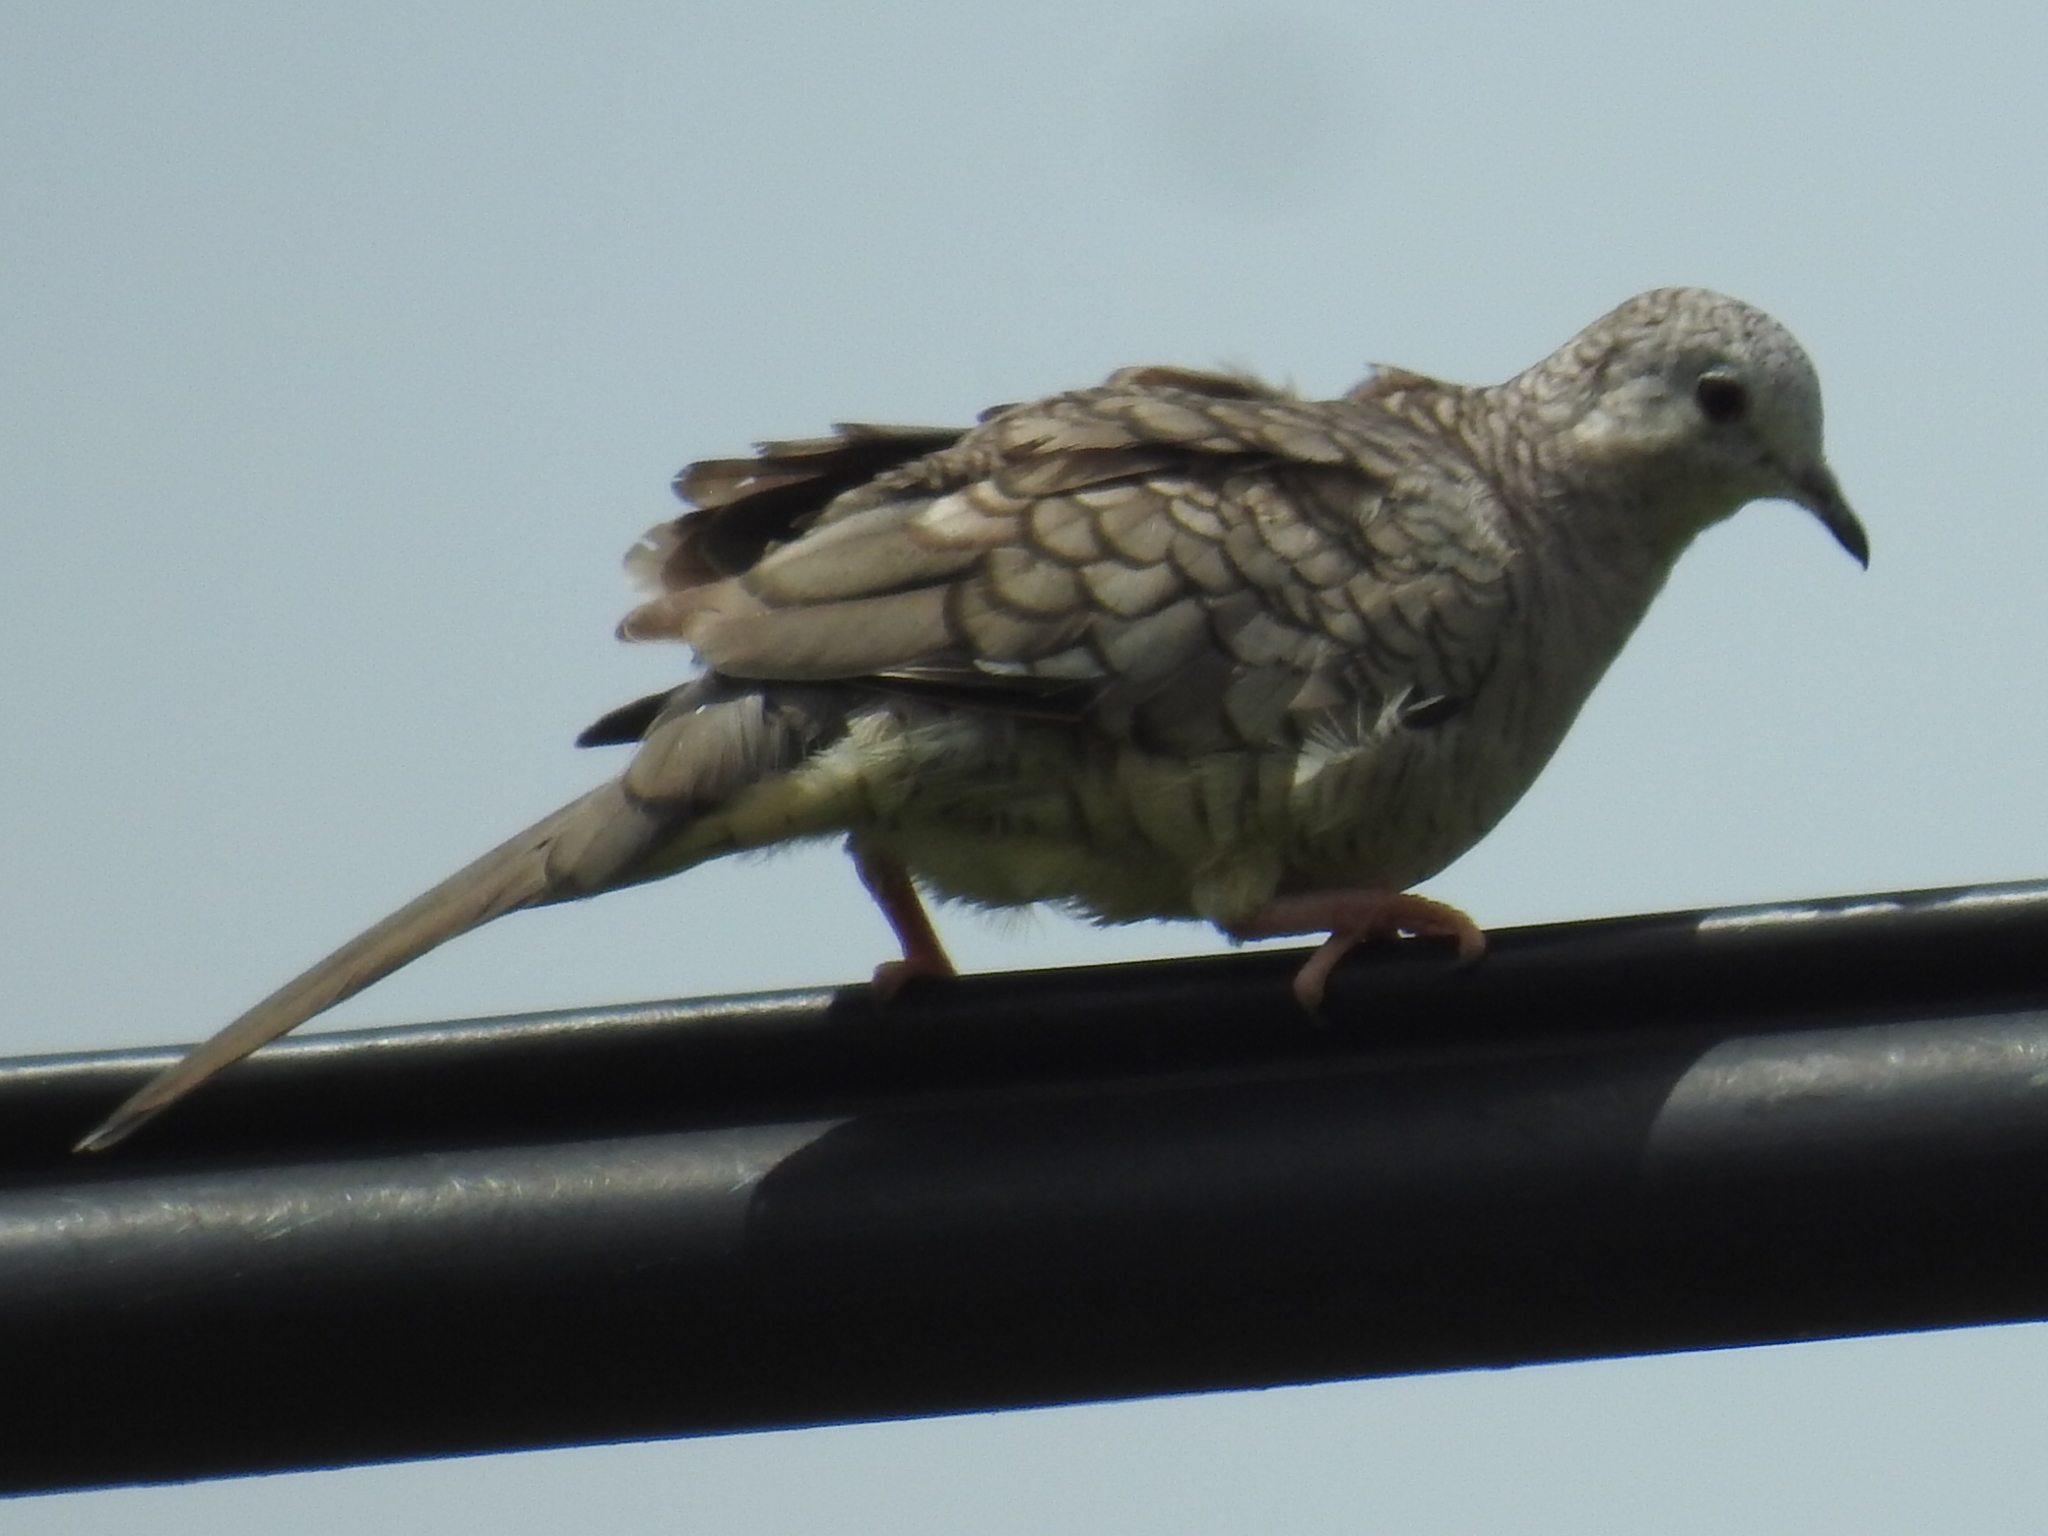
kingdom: Animalia
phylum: Chordata
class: Aves
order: Columbiformes
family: Columbidae
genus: Columbina
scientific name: Columbina inca
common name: Inca dove
